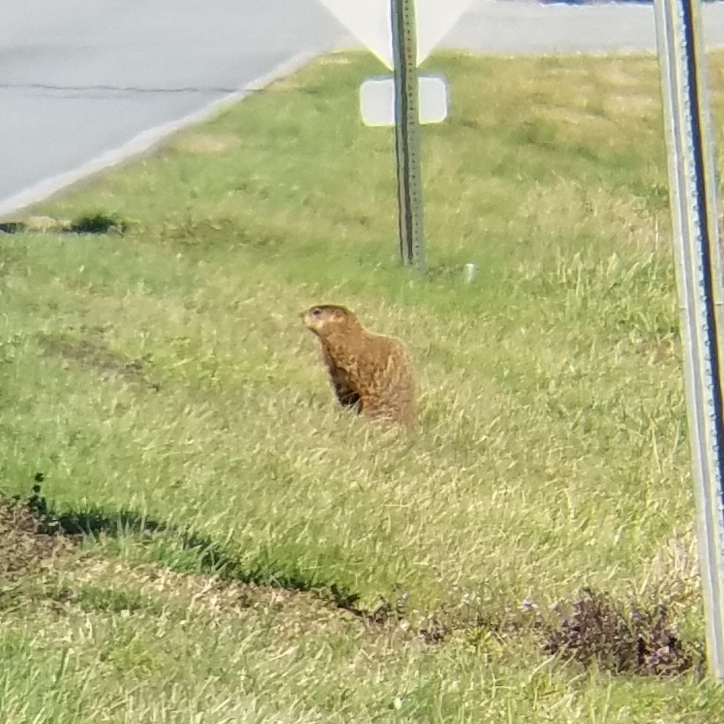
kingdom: Animalia
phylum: Chordata
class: Mammalia
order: Rodentia
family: Sciuridae
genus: Marmota
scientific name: Marmota monax
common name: Groundhog
